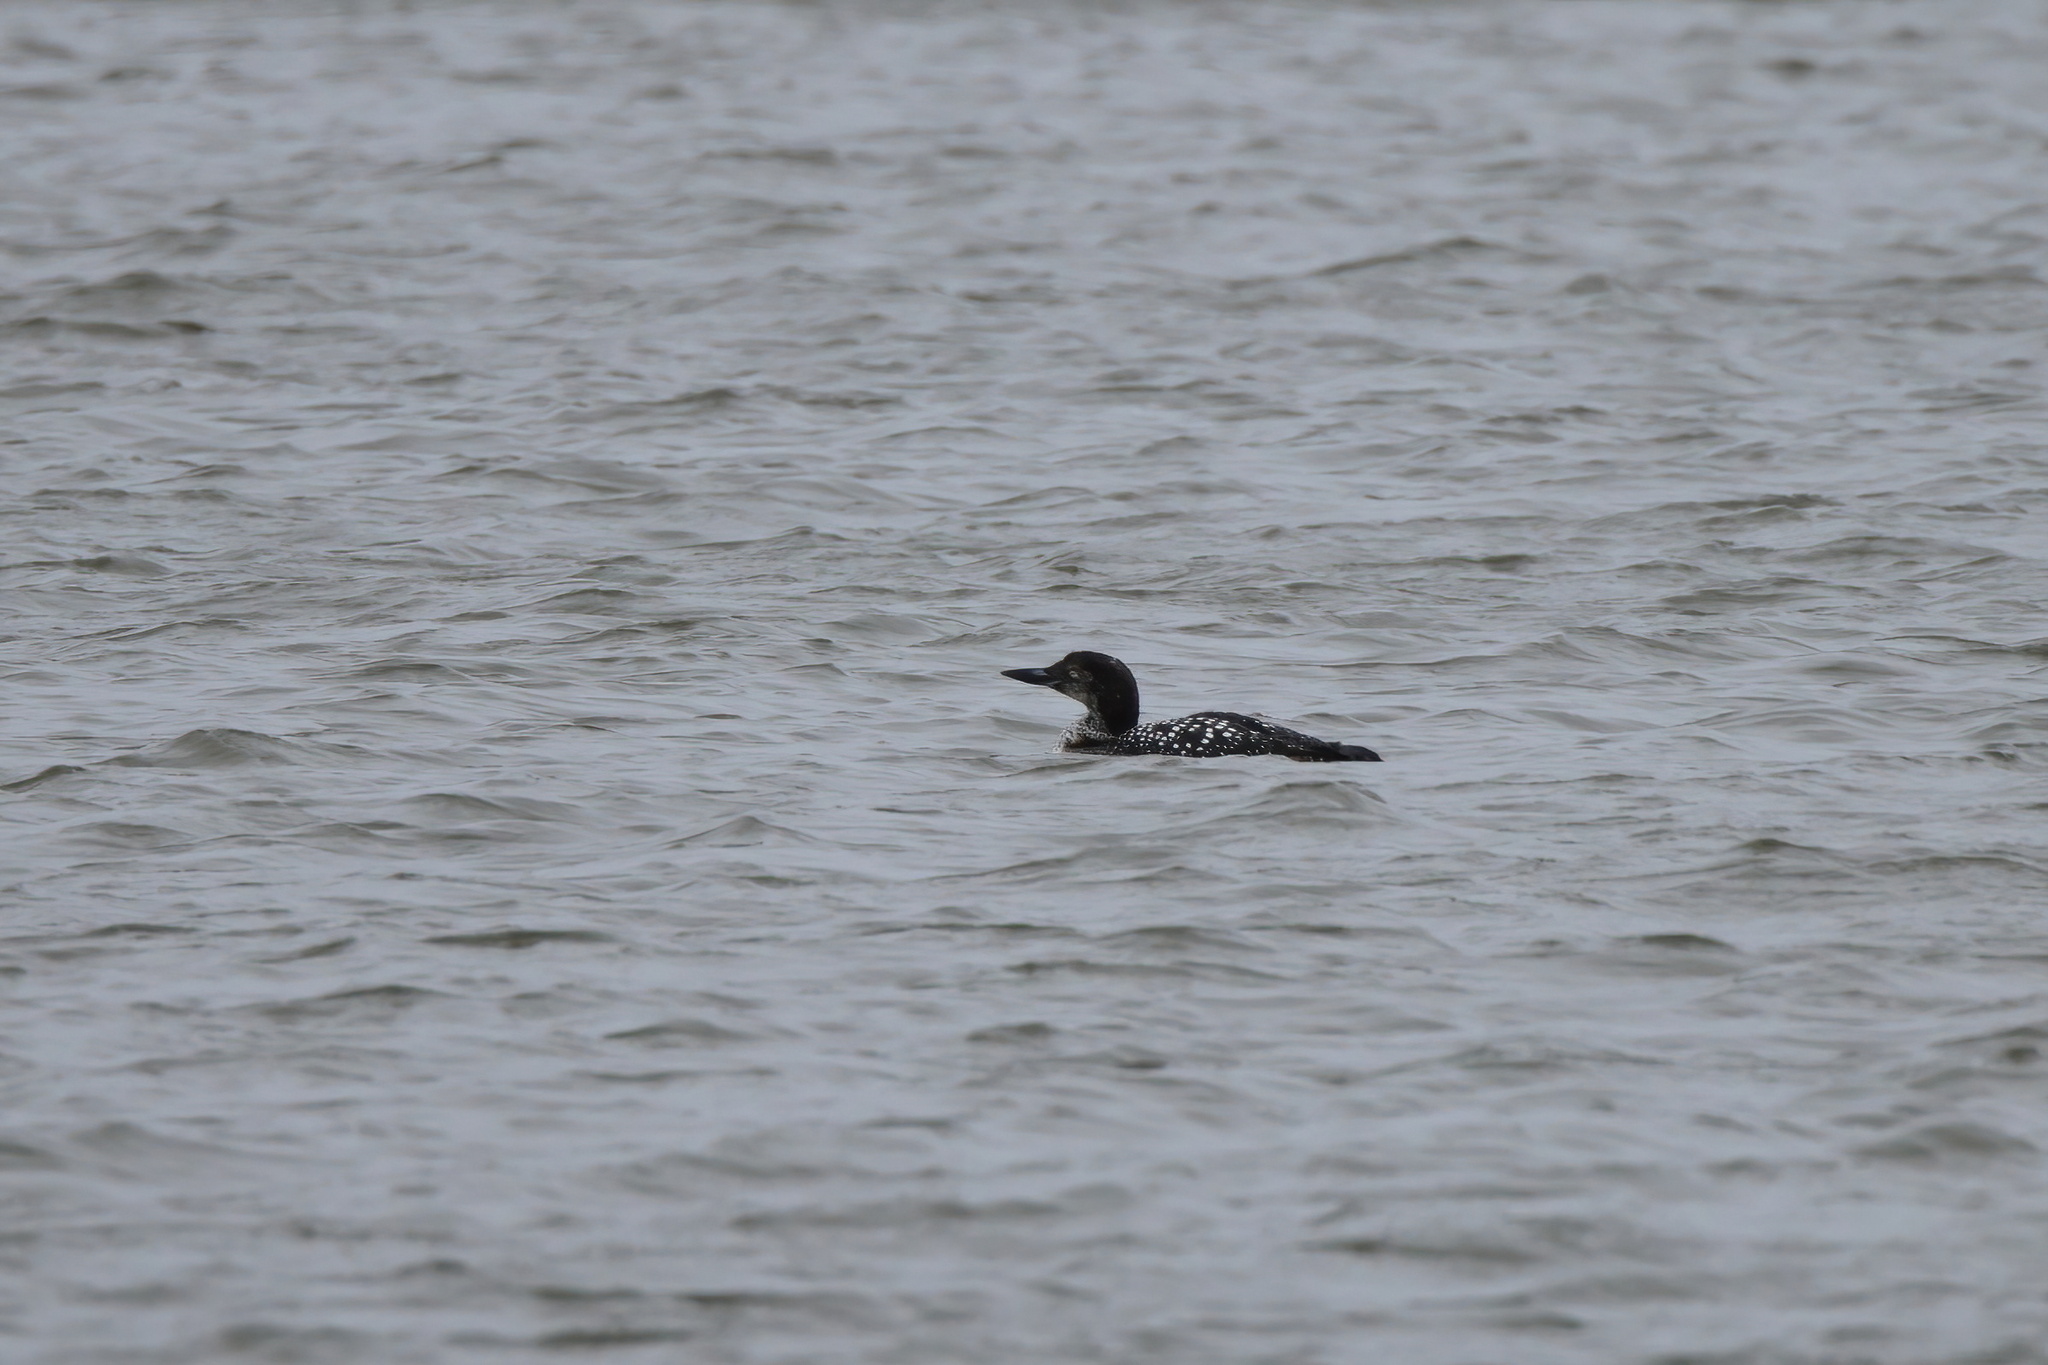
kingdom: Animalia
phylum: Chordata
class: Aves
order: Gaviiformes
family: Gaviidae
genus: Gavia
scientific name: Gavia immer
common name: Common loon
